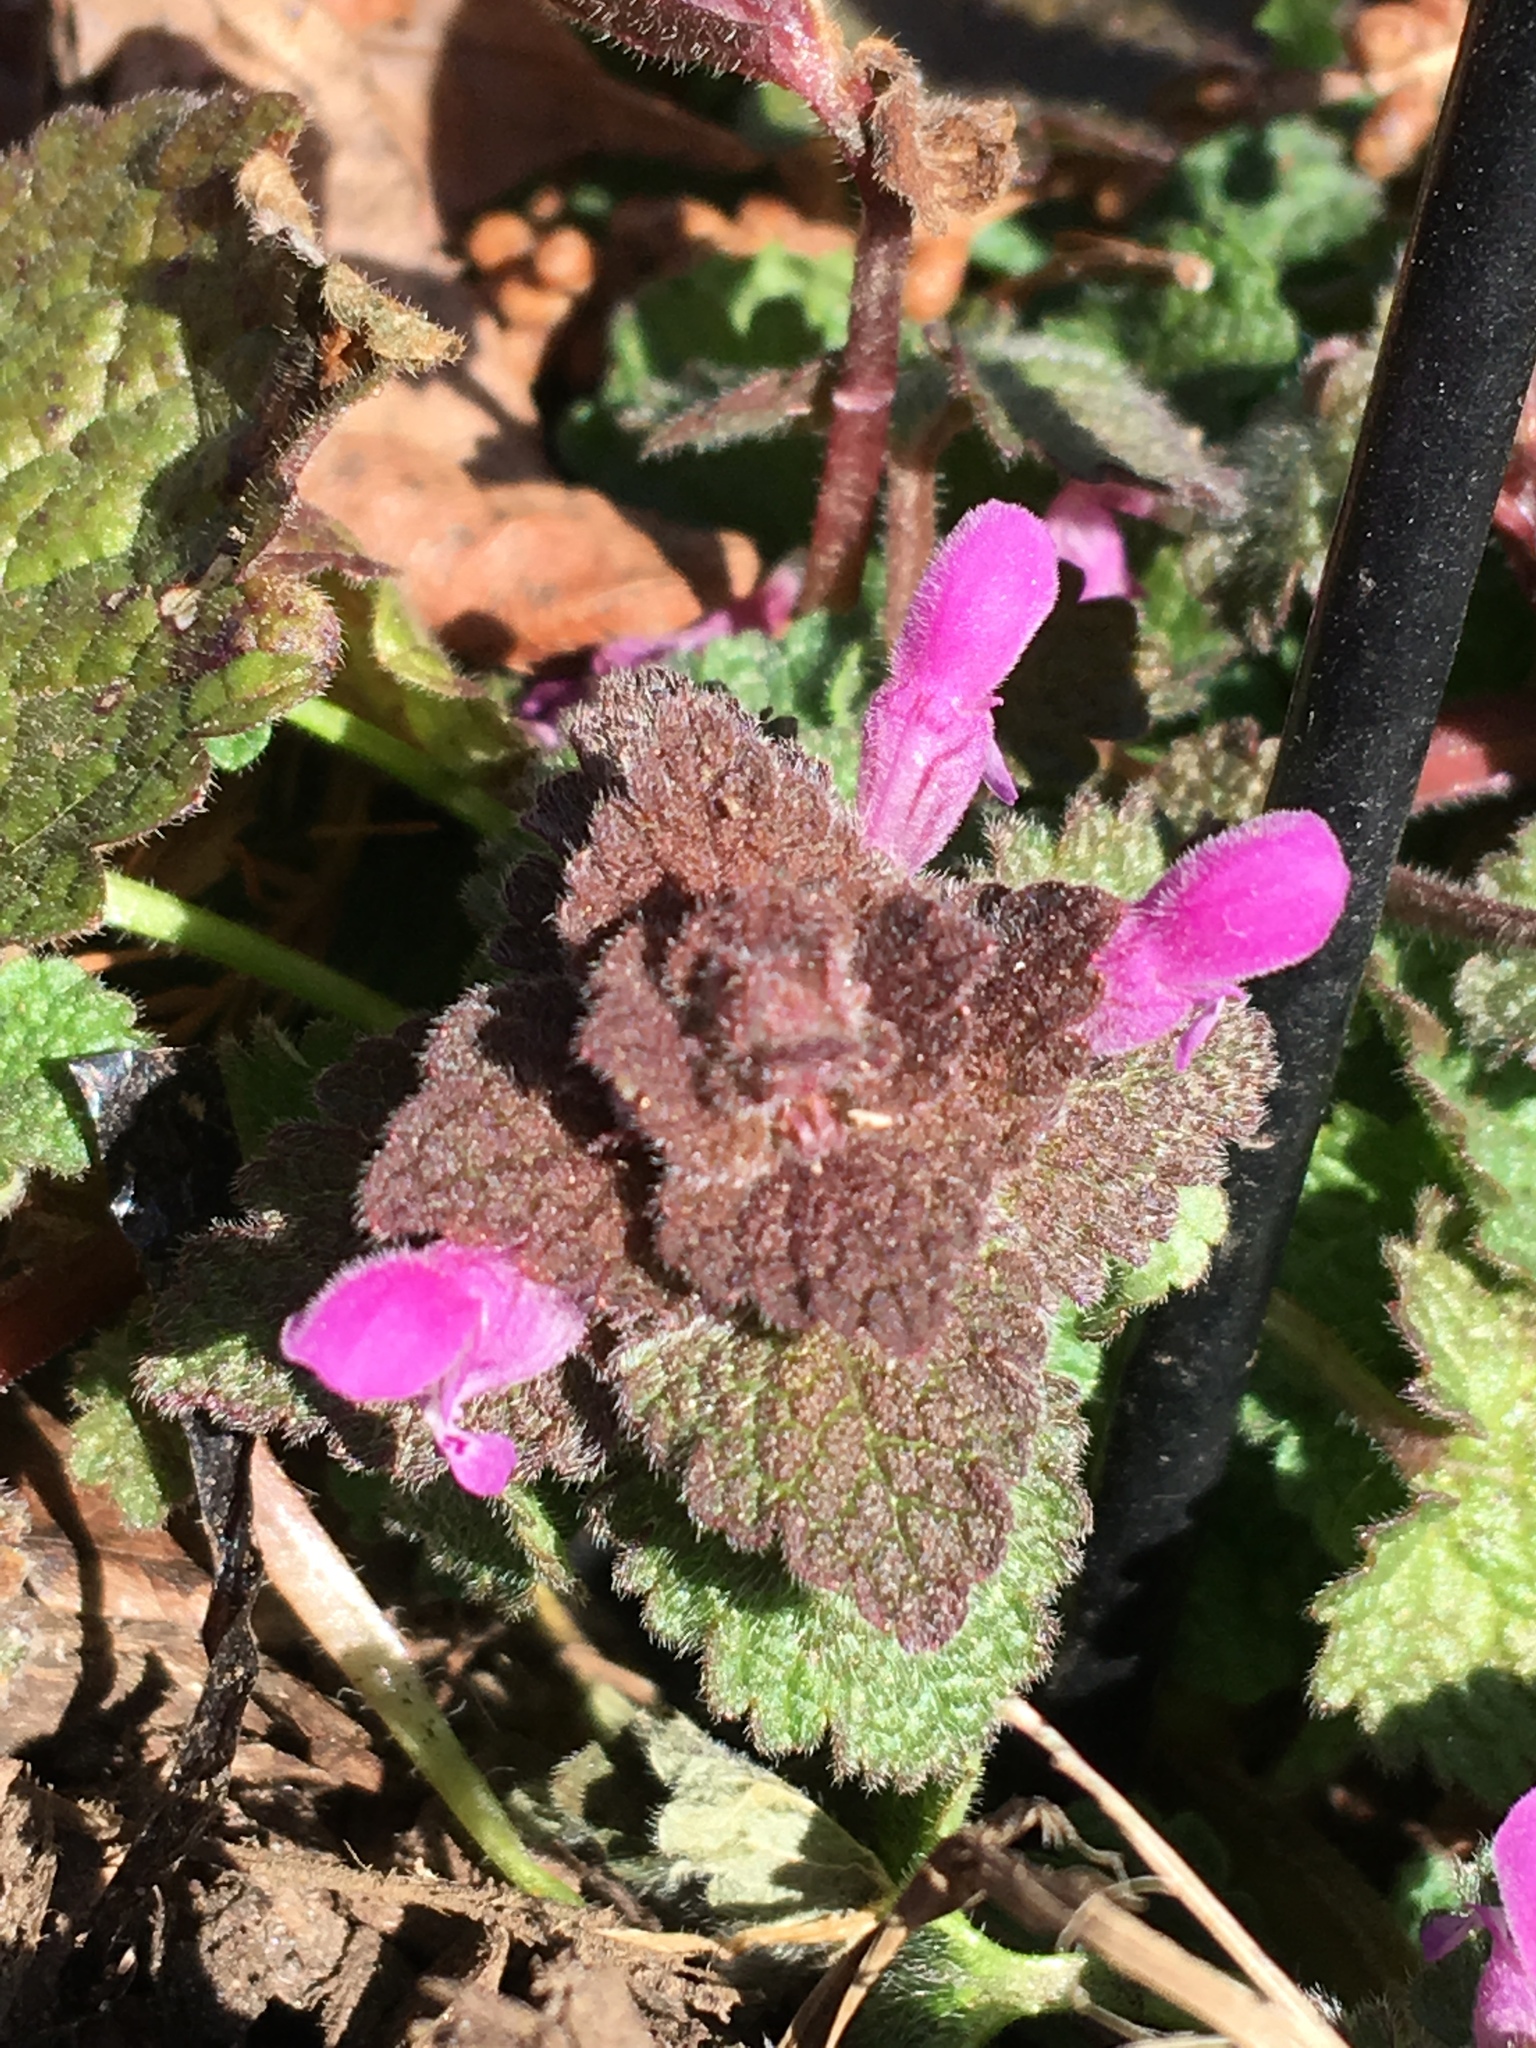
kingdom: Plantae
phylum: Tracheophyta
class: Magnoliopsida
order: Lamiales
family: Lamiaceae
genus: Lamium
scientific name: Lamium purpureum
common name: Red dead-nettle
